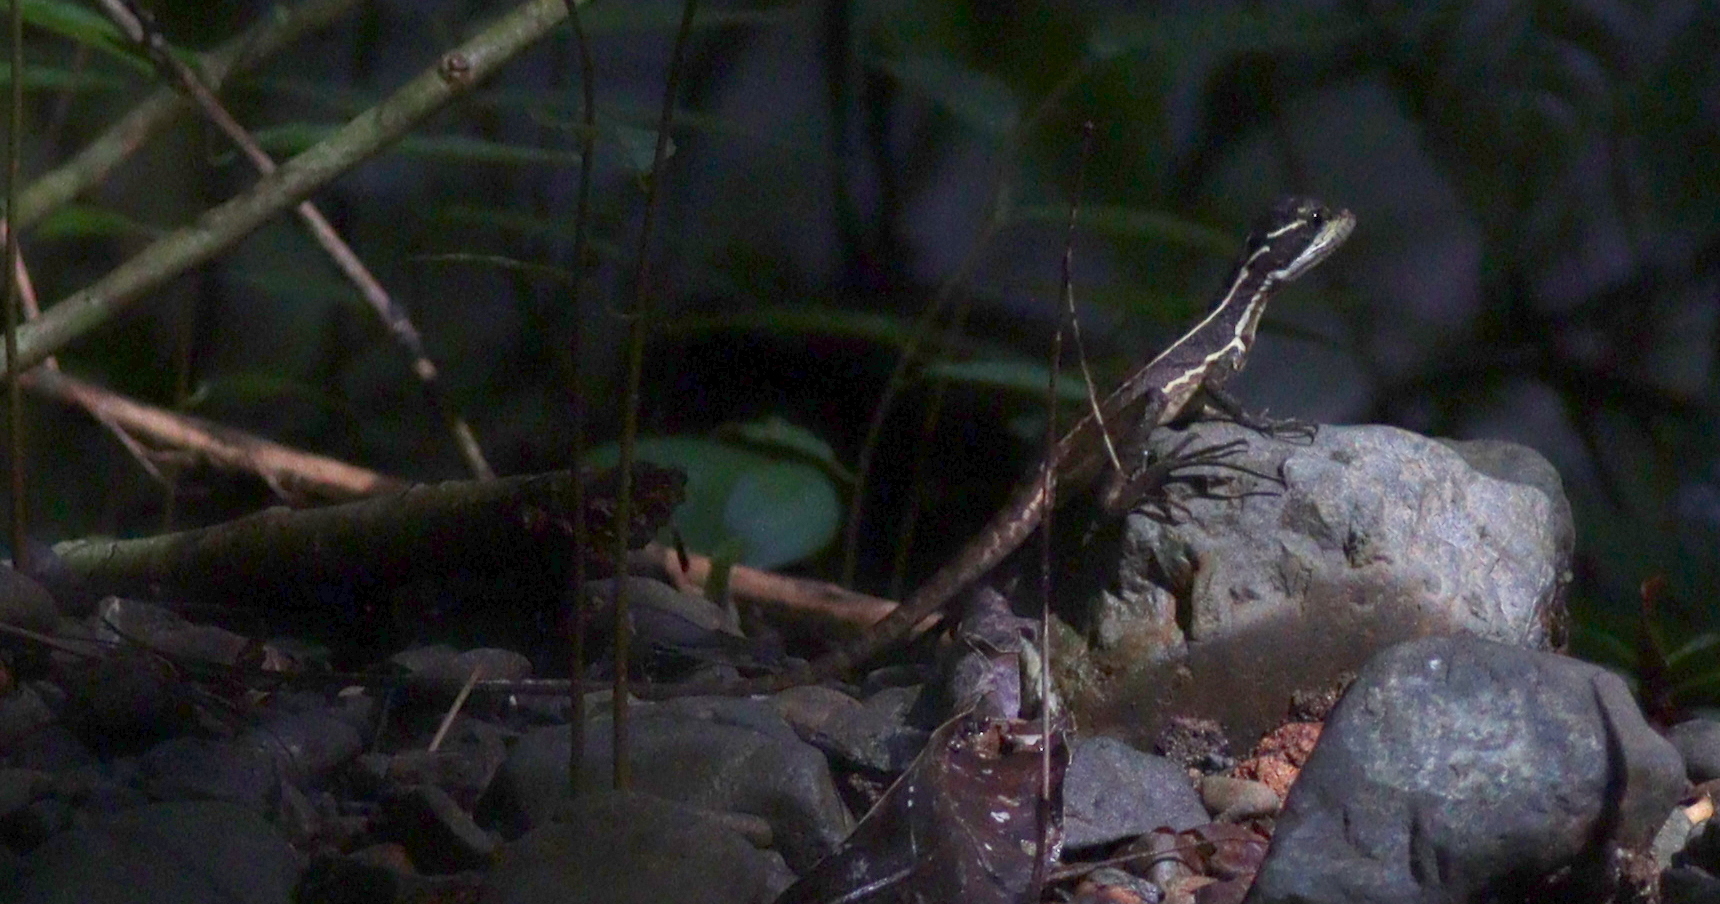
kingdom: Animalia
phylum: Chordata
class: Squamata
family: Corytophanidae
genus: Basiliscus
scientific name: Basiliscus basiliscus
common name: Common basilisk
